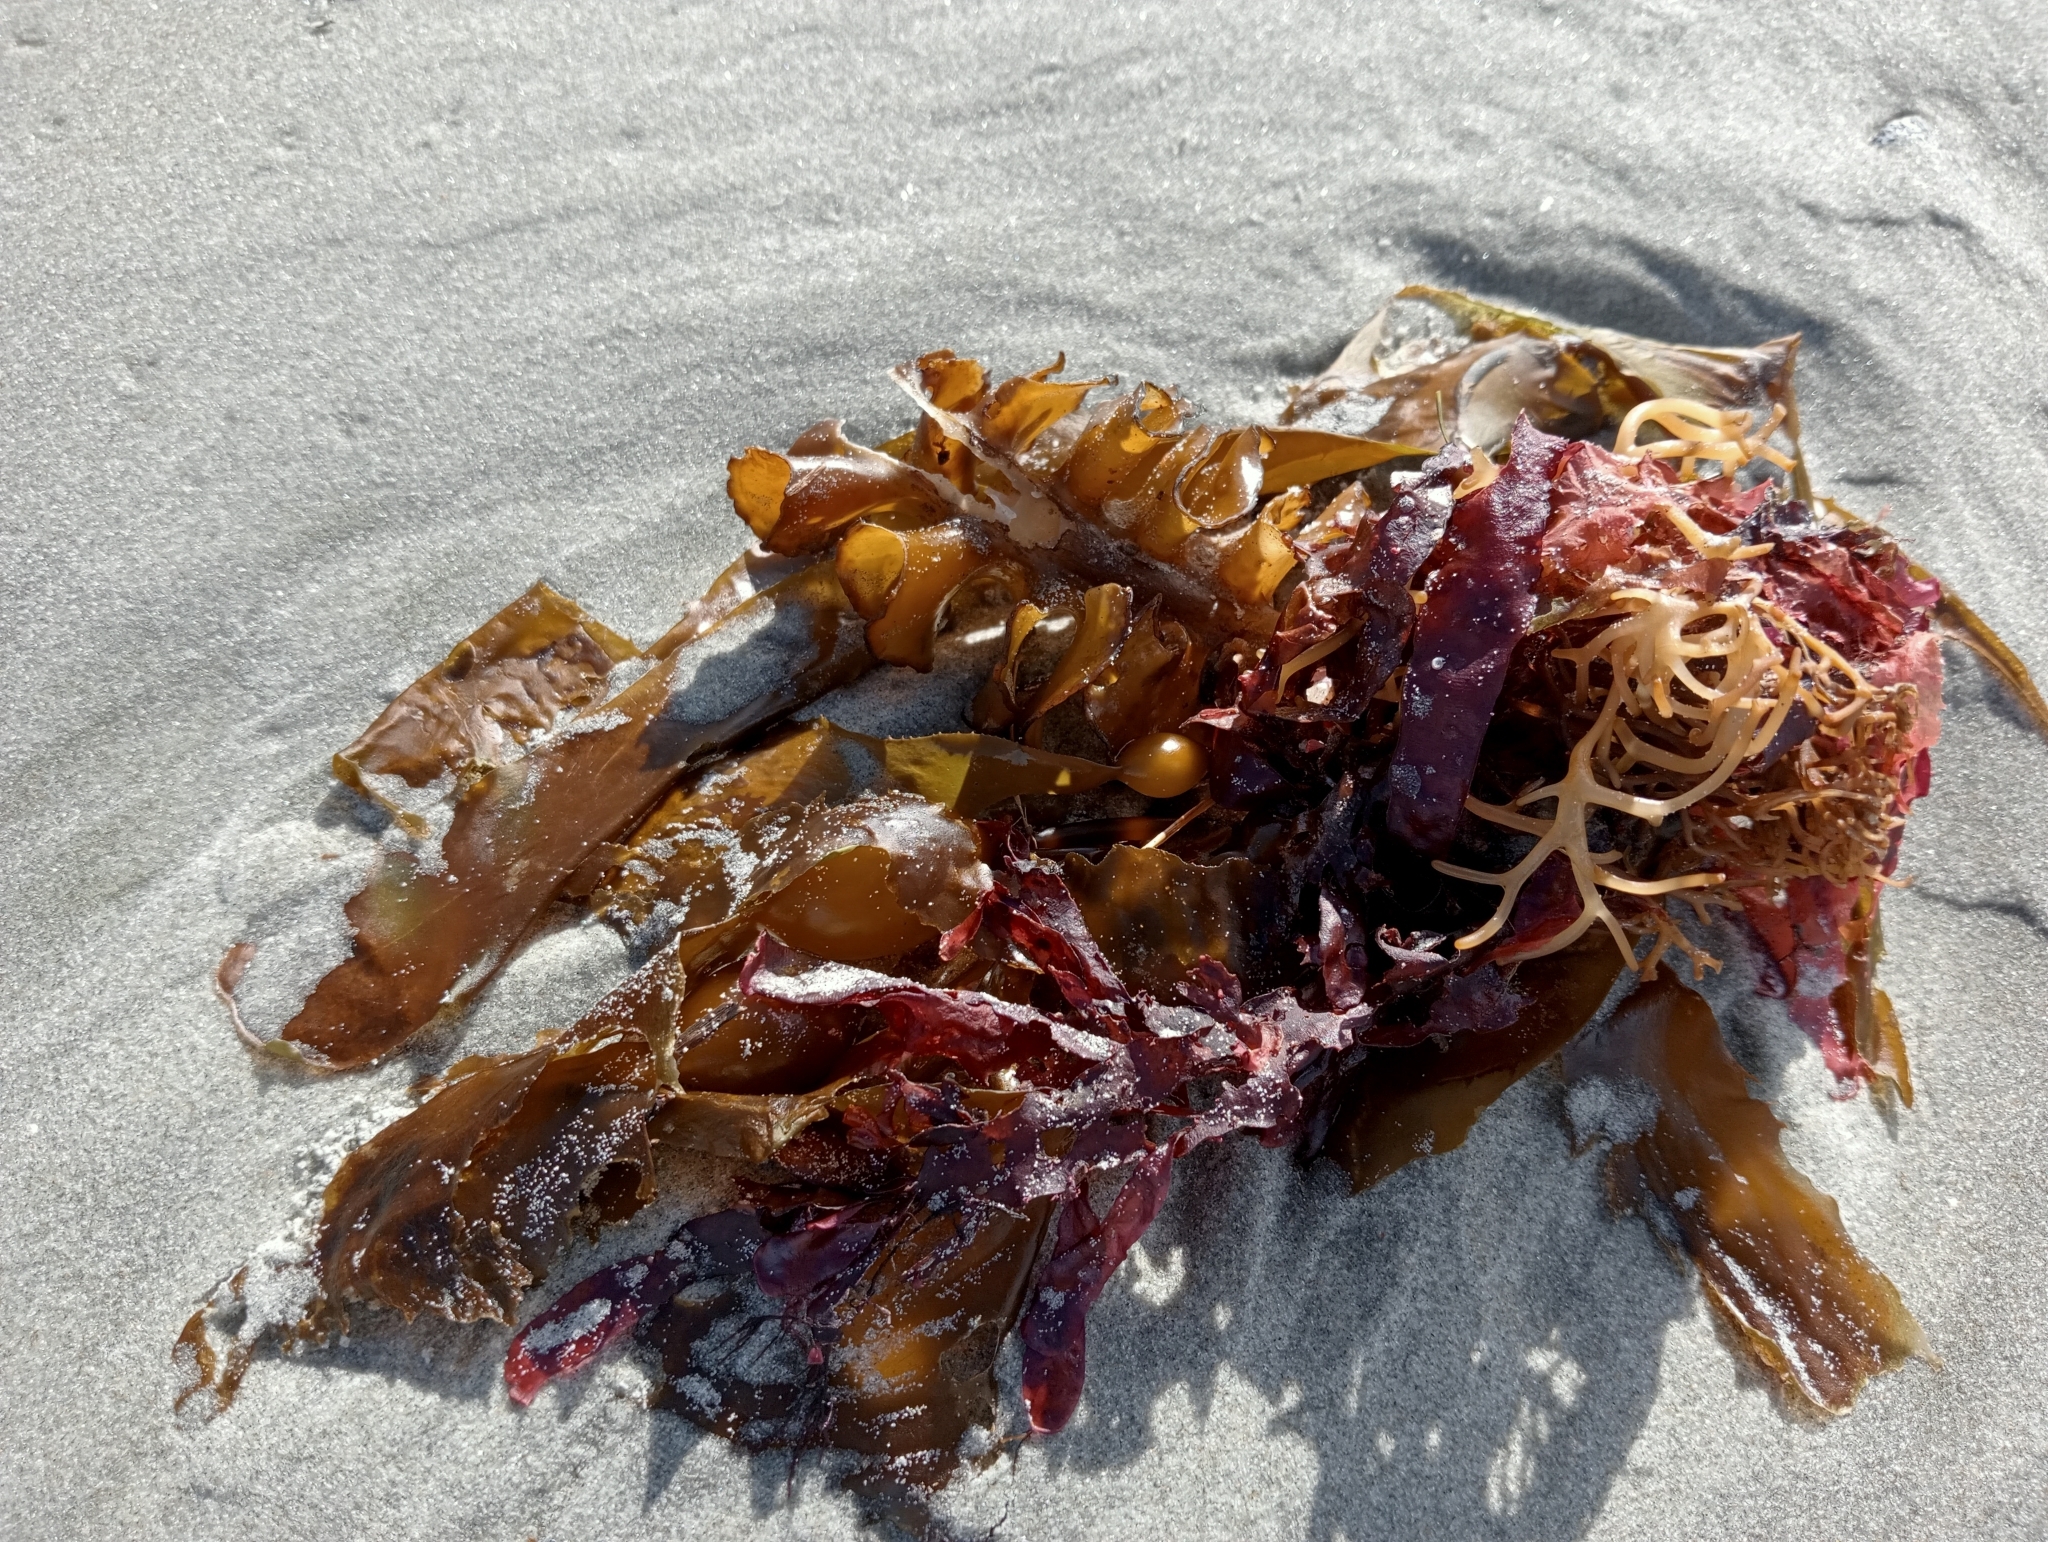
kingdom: Chromista
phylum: Ochrophyta
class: Phaeophyceae
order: Laminariales
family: Alariaceae
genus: Undaria
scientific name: Undaria pinnatifida
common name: Asian kelp
